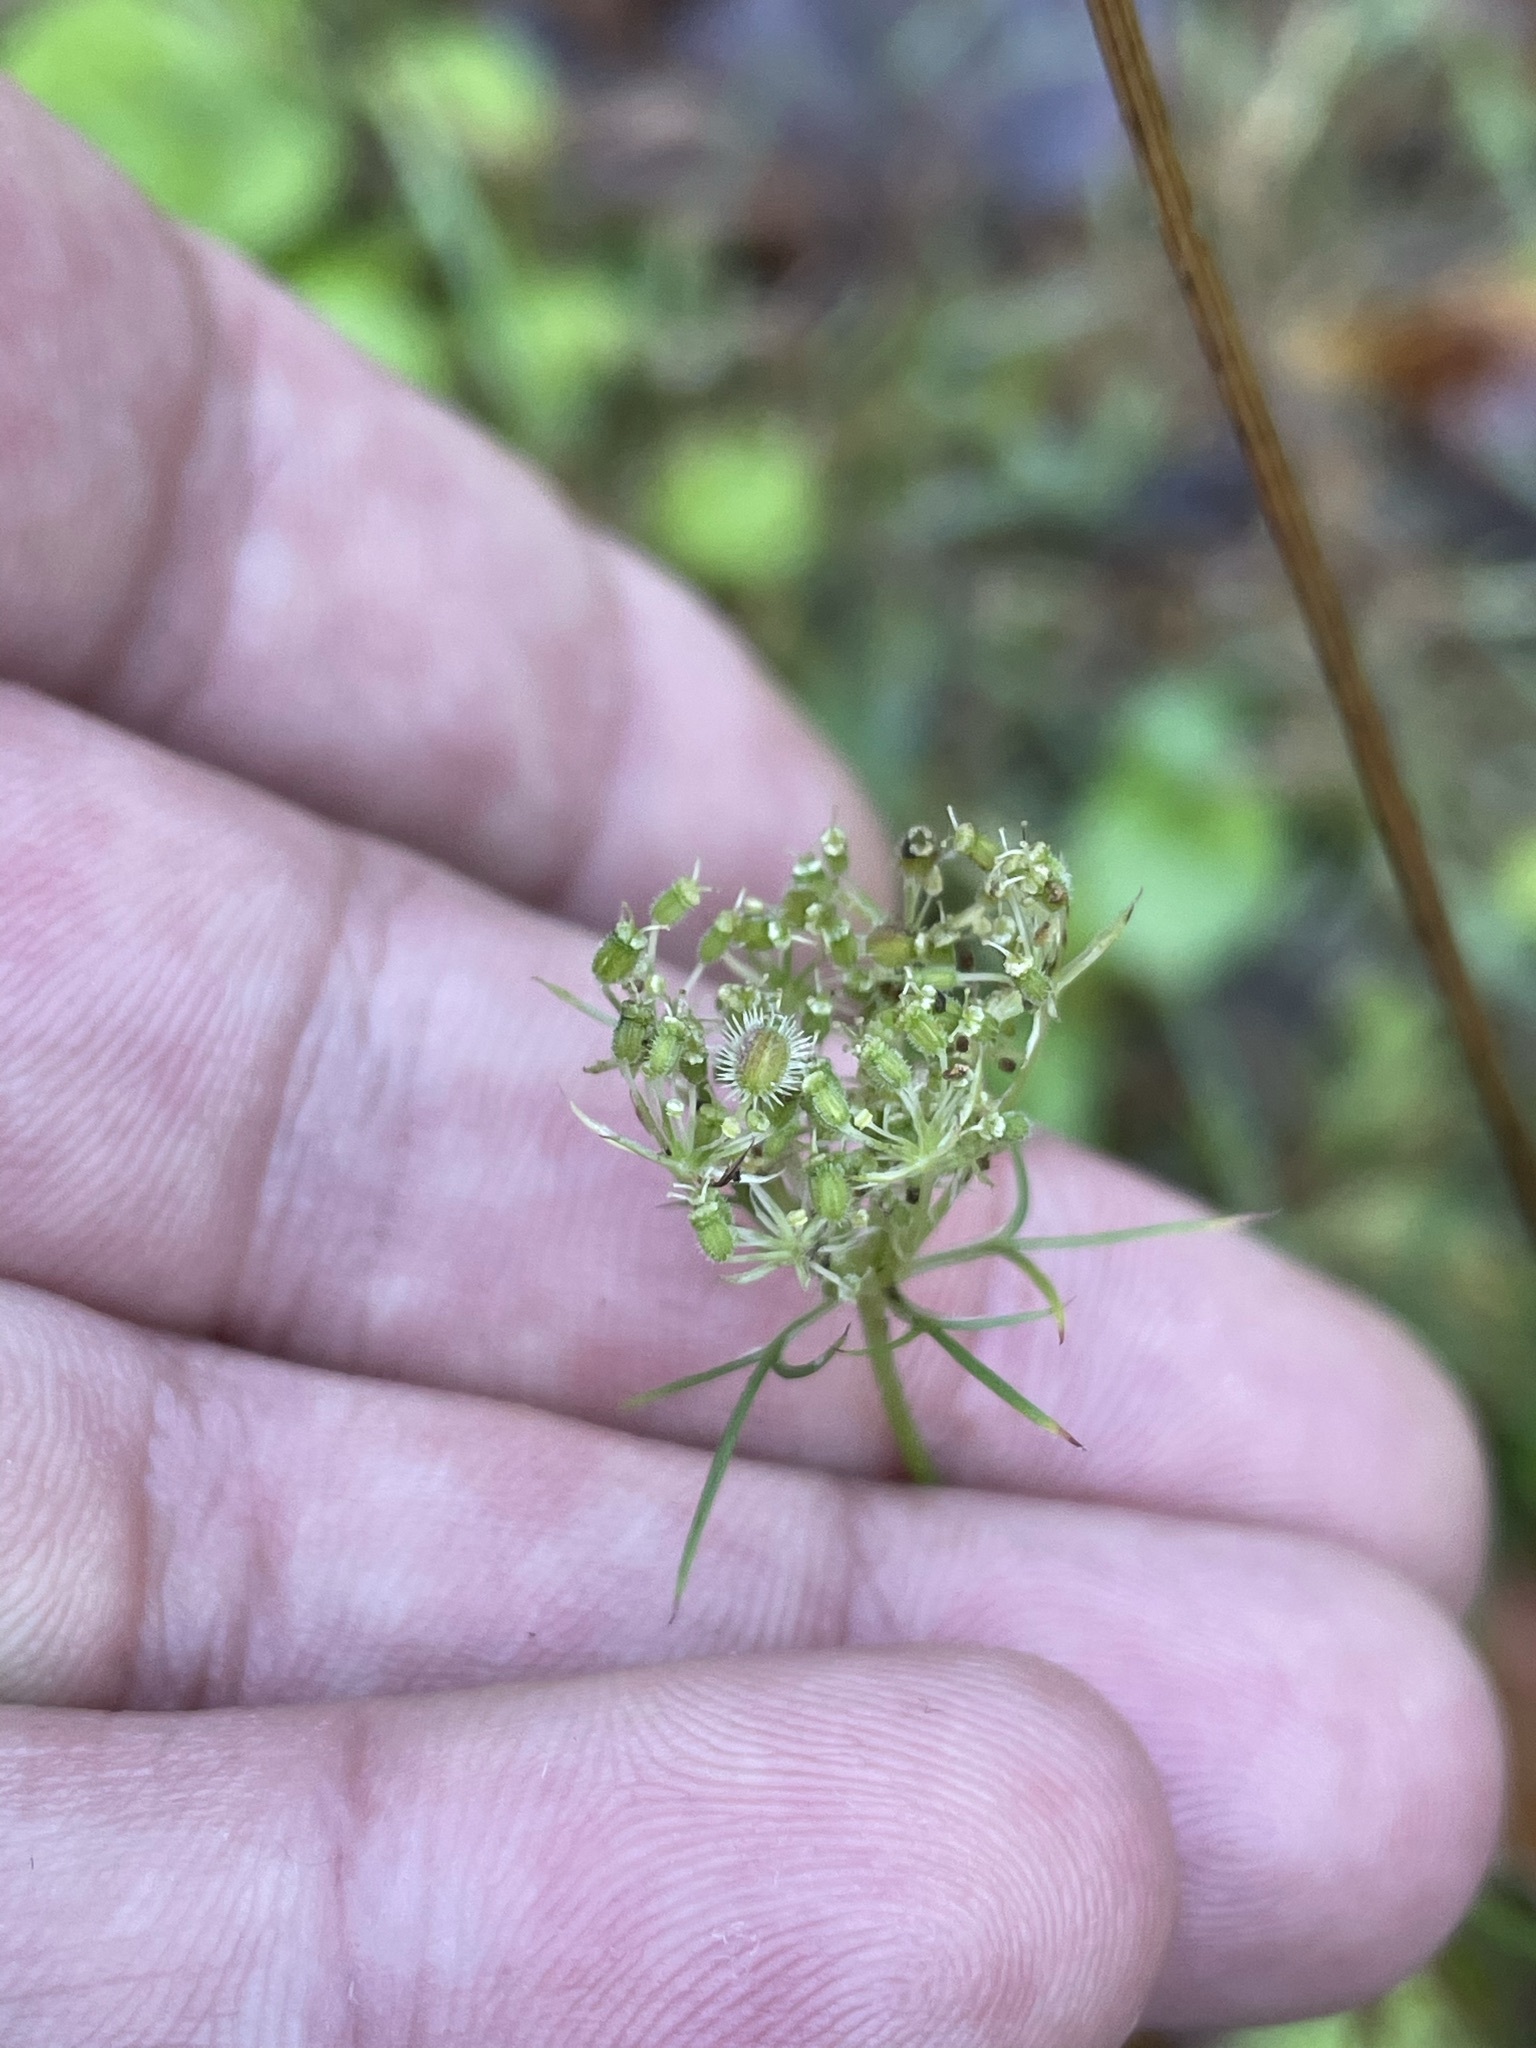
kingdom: Plantae
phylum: Tracheophyta
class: Magnoliopsida
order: Apiales
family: Apiaceae
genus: Daucus
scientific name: Daucus carota
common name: Wild carrot
